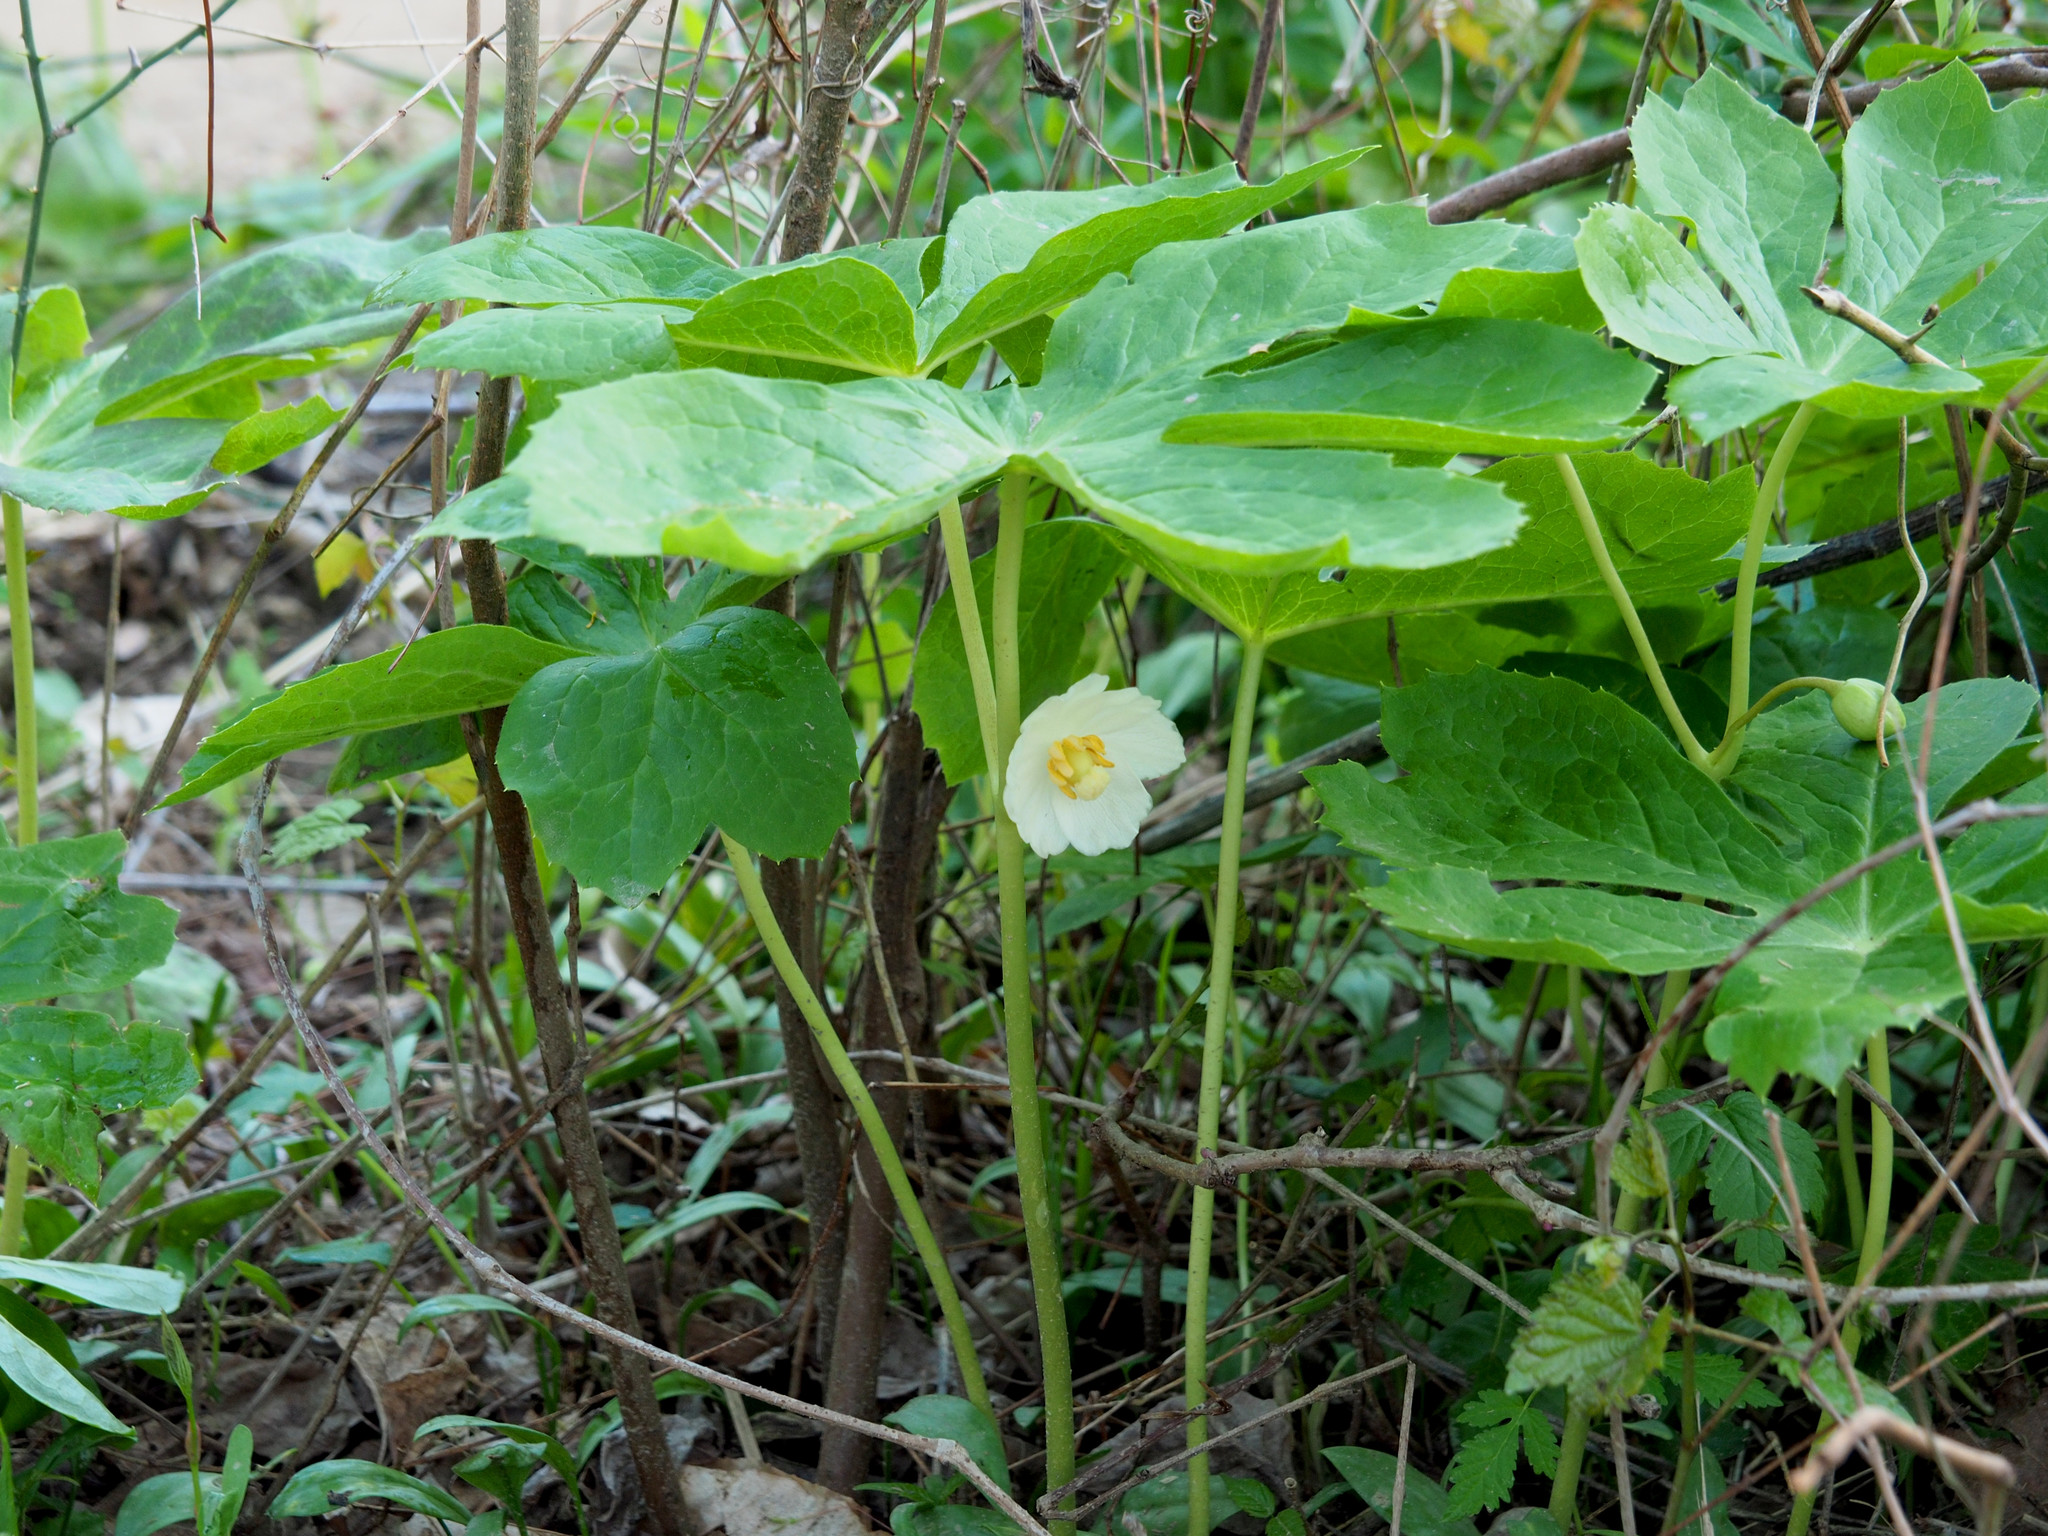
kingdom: Plantae
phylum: Tracheophyta
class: Magnoliopsida
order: Ranunculales
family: Berberidaceae
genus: Podophyllum
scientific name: Podophyllum peltatum
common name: Wild mandrake
